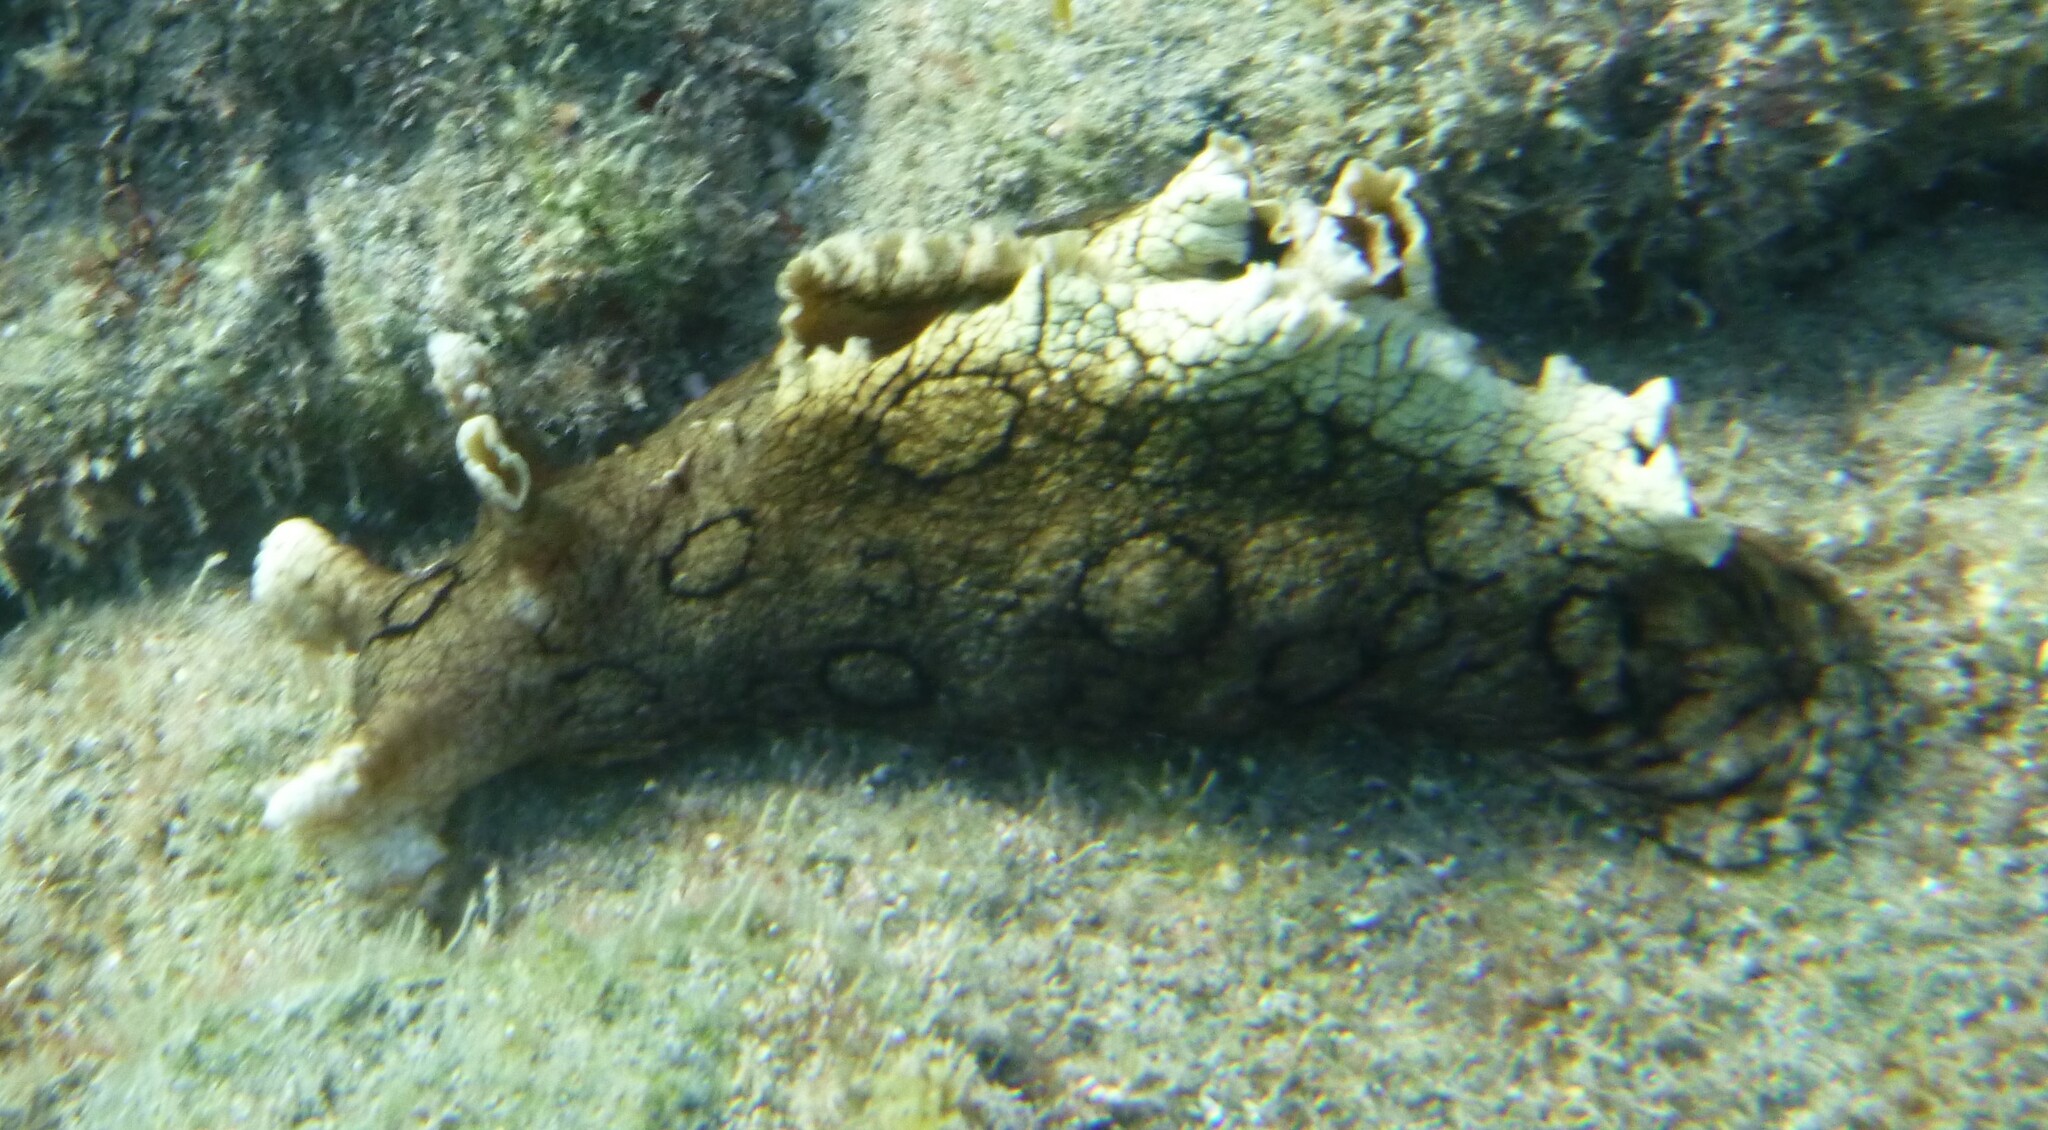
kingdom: Animalia
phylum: Mollusca
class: Gastropoda
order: Aplysiida
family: Aplysiidae
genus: Aplysia
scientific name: Aplysia dactylomela
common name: Large-spotted sea hare
